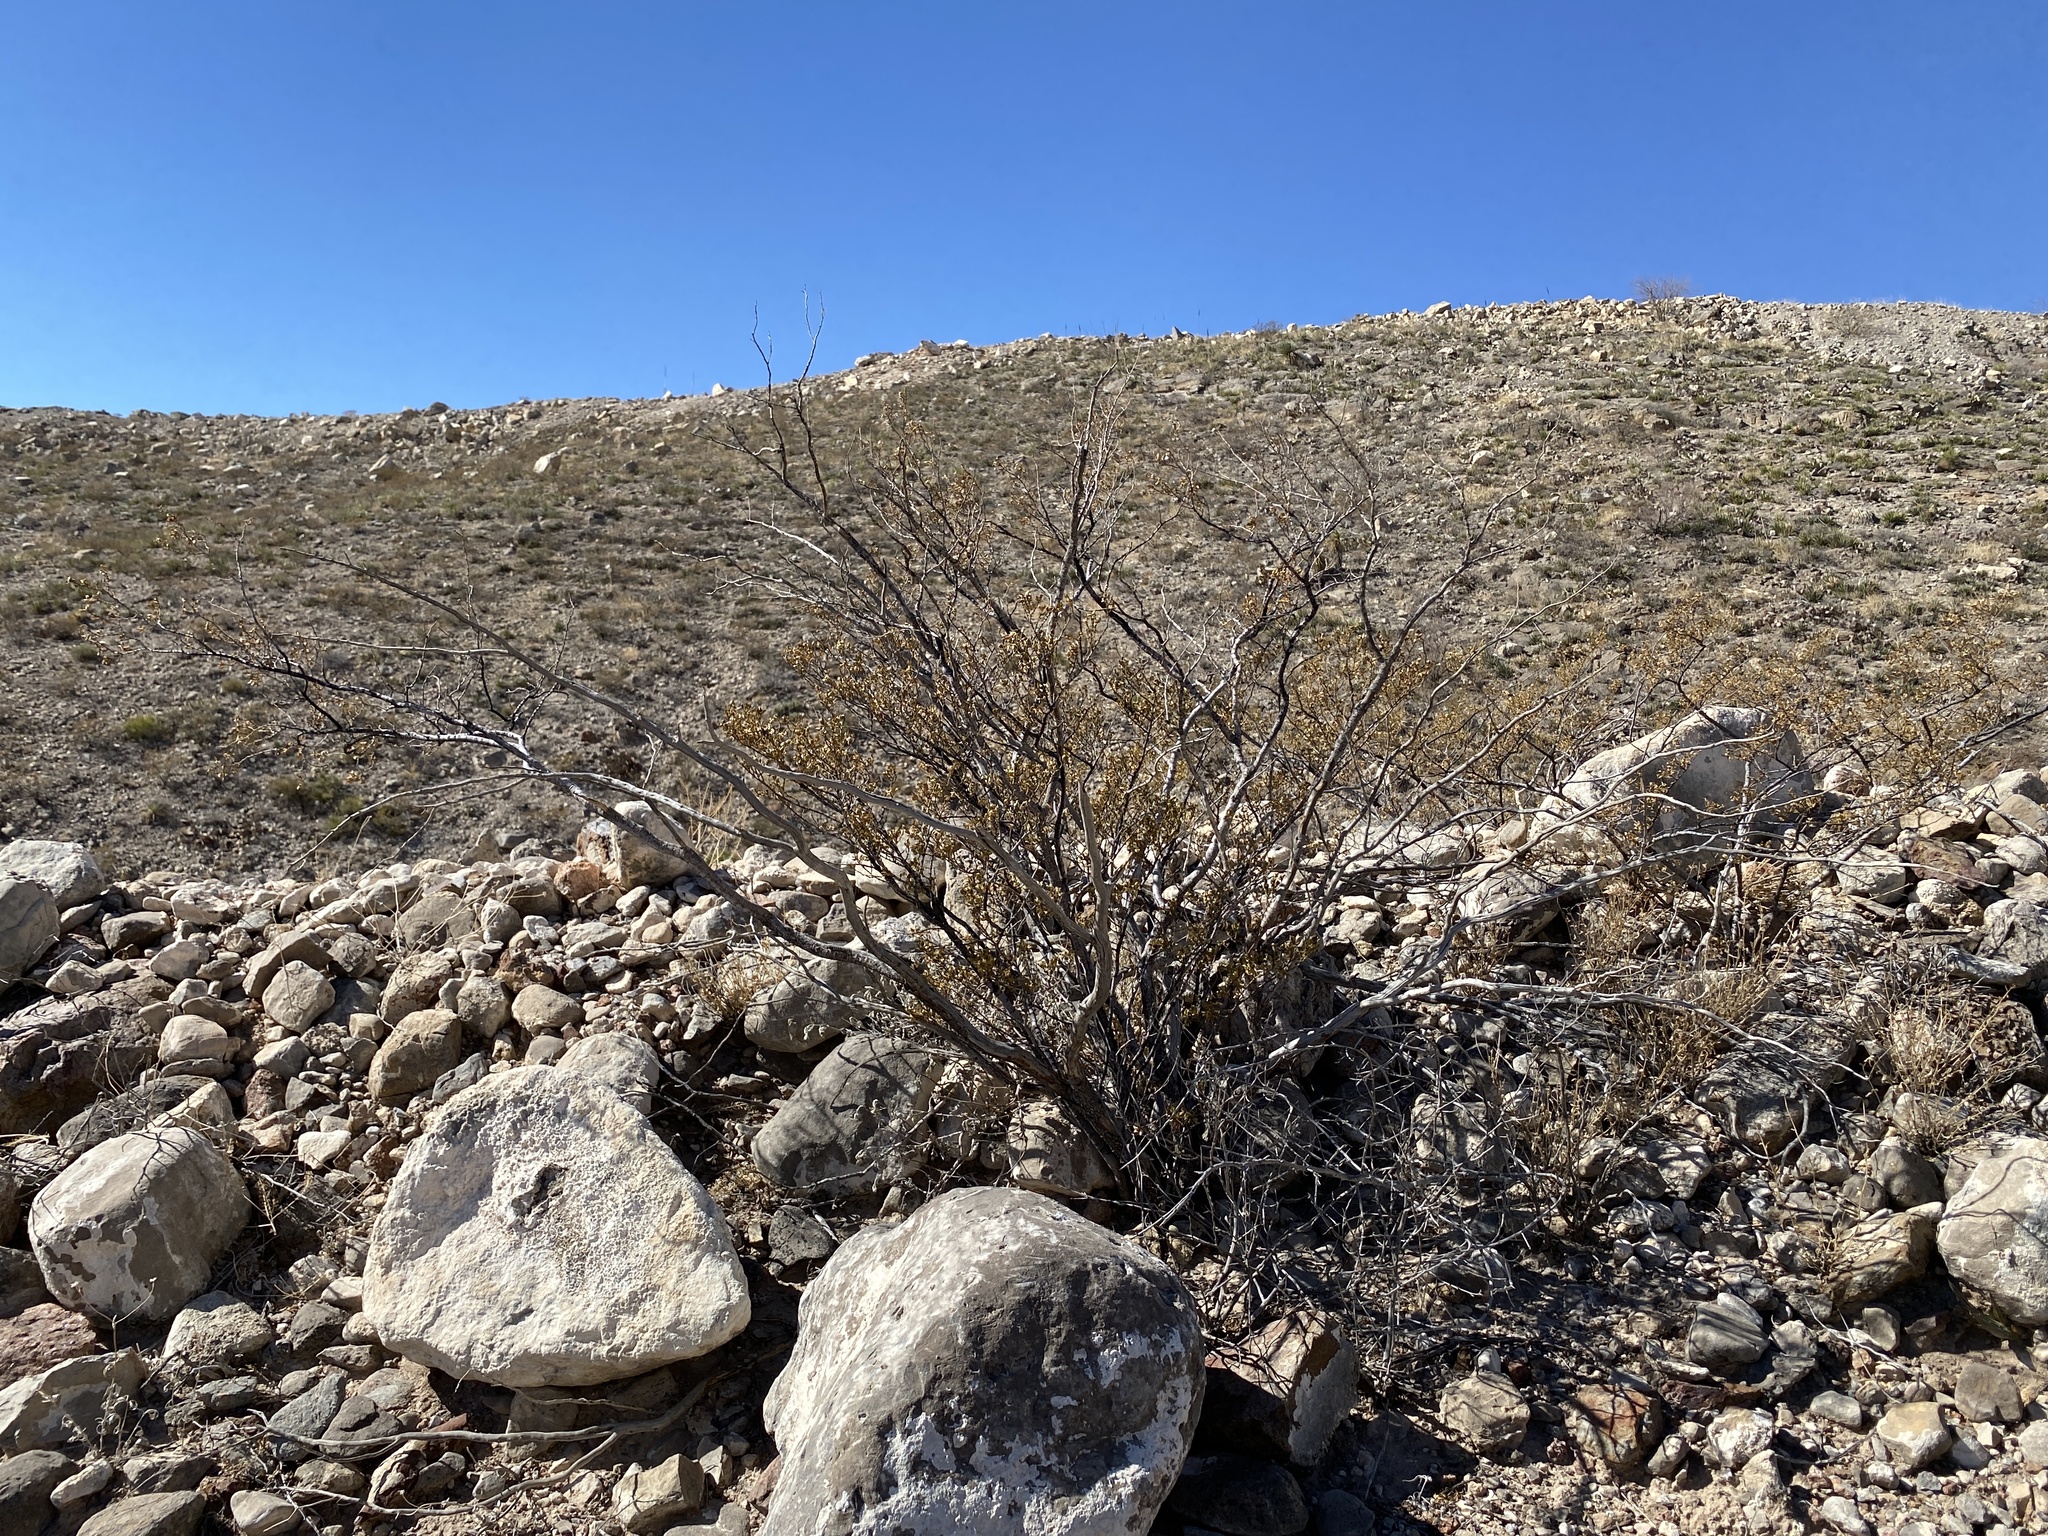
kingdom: Plantae
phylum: Tracheophyta
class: Magnoliopsida
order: Zygophyllales
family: Zygophyllaceae
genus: Larrea
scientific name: Larrea tridentata
